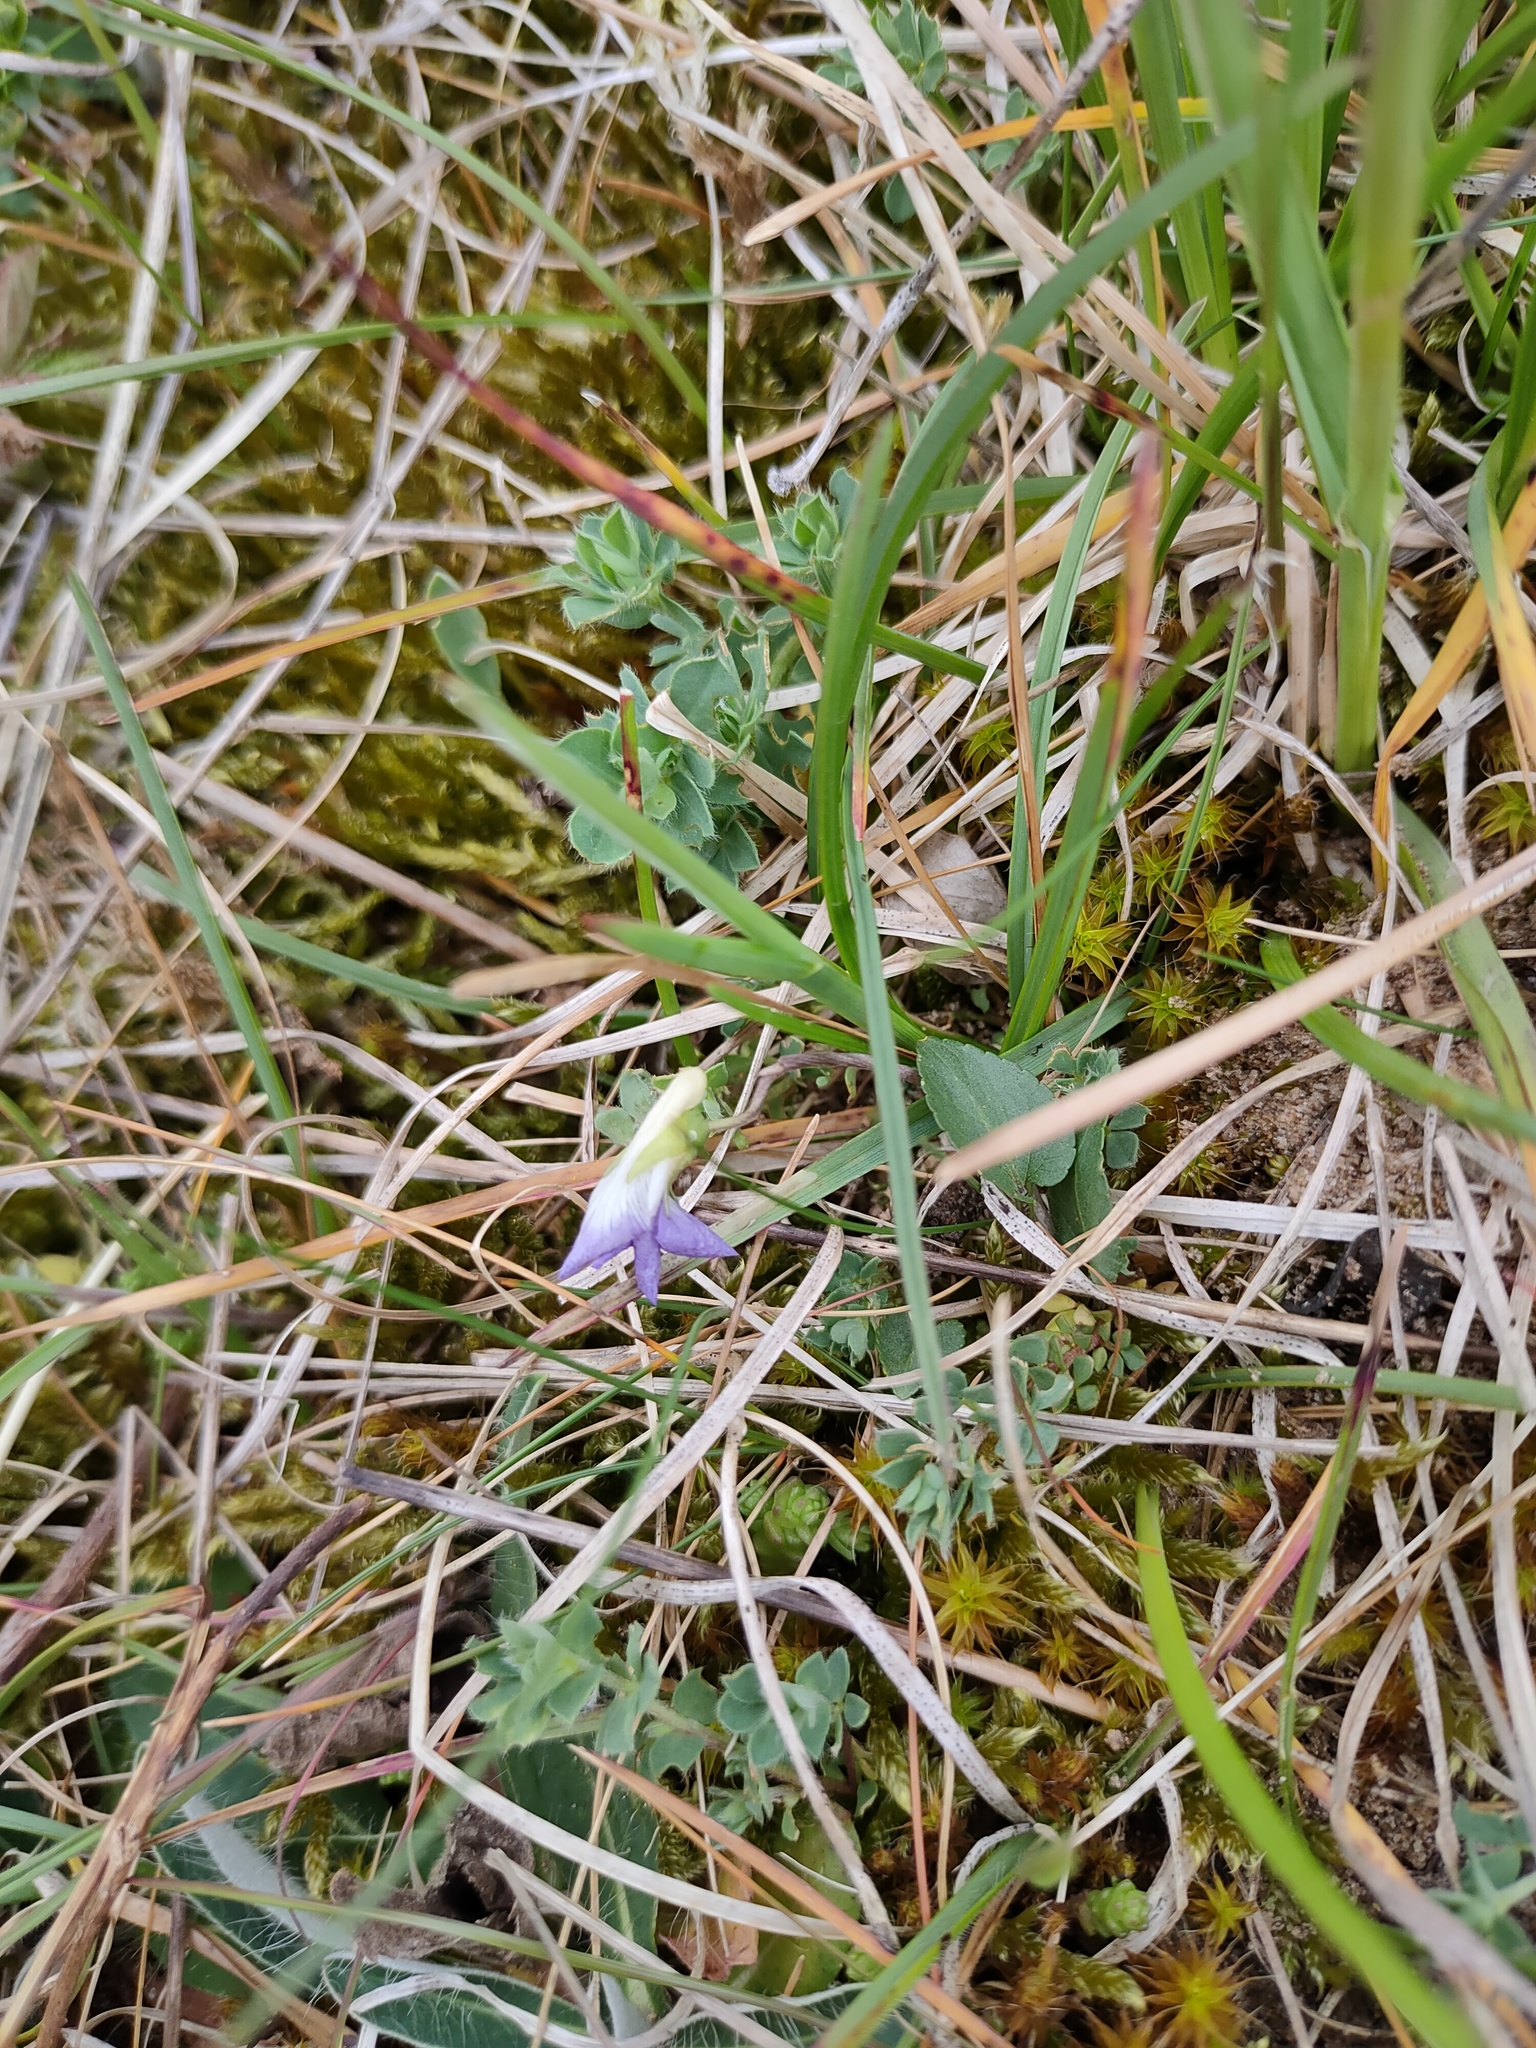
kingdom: Plantae
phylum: Tracheophyta
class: Magnoliopsida
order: Malpighiales
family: Violaceae
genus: Viola
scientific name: Viola canina
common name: Heath dog-violet
